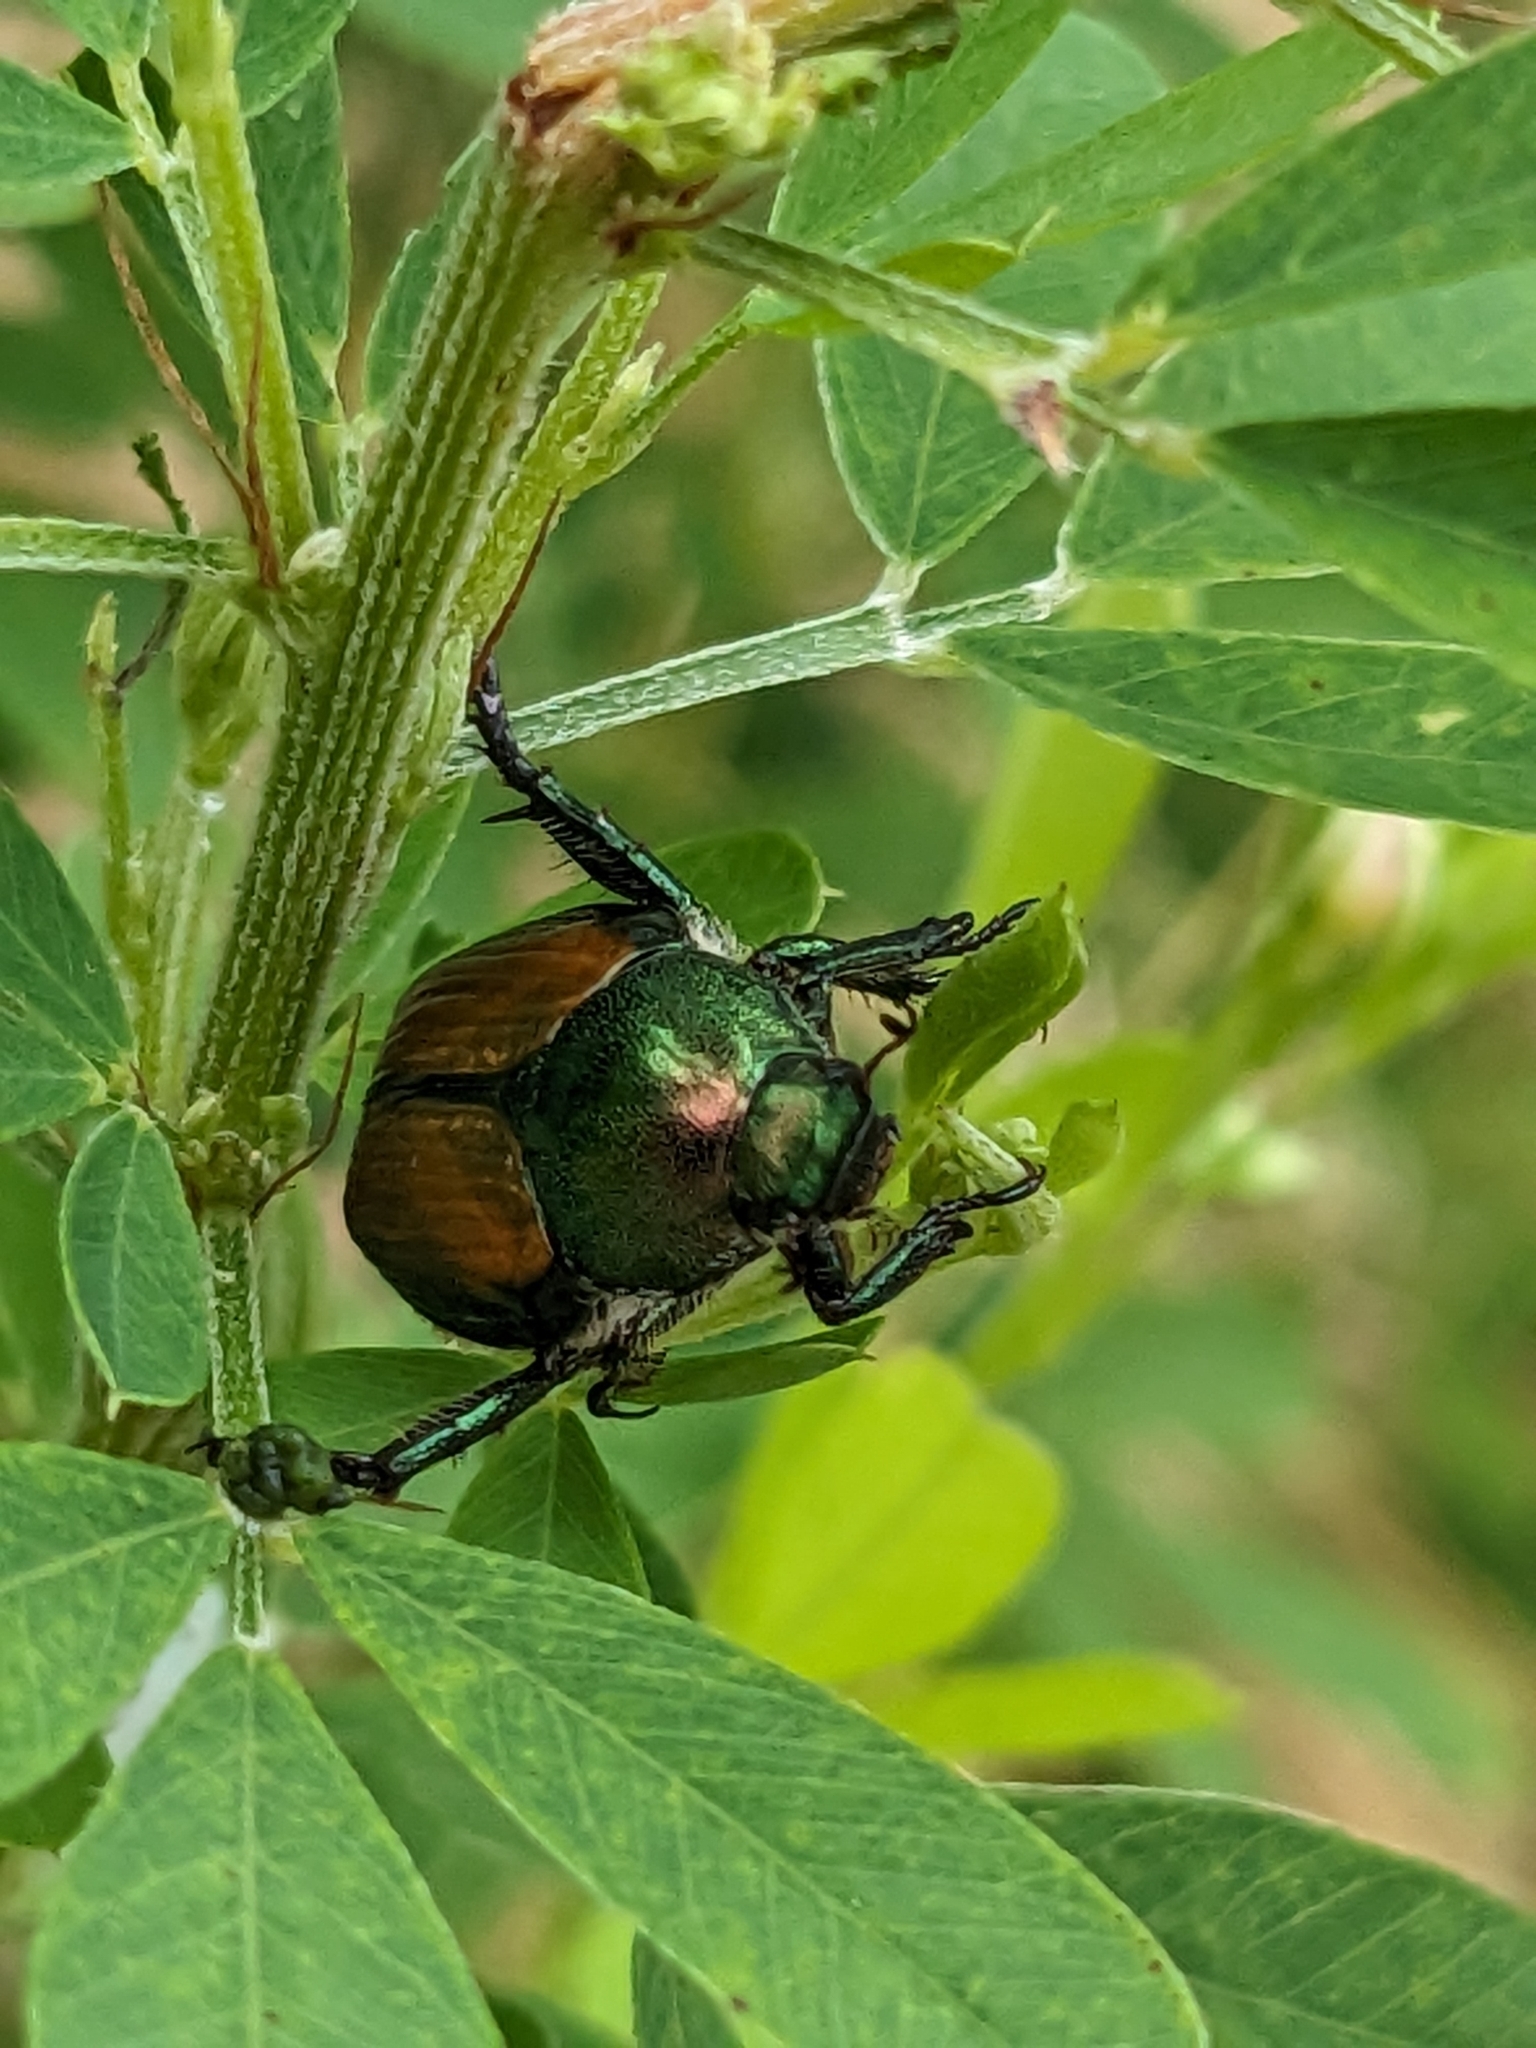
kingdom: Animalia
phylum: Arthropoda
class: Insecta
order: Coleoptera
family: Scarabaeidae
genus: Popillia
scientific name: Popillia japonica
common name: Japanese beetle
